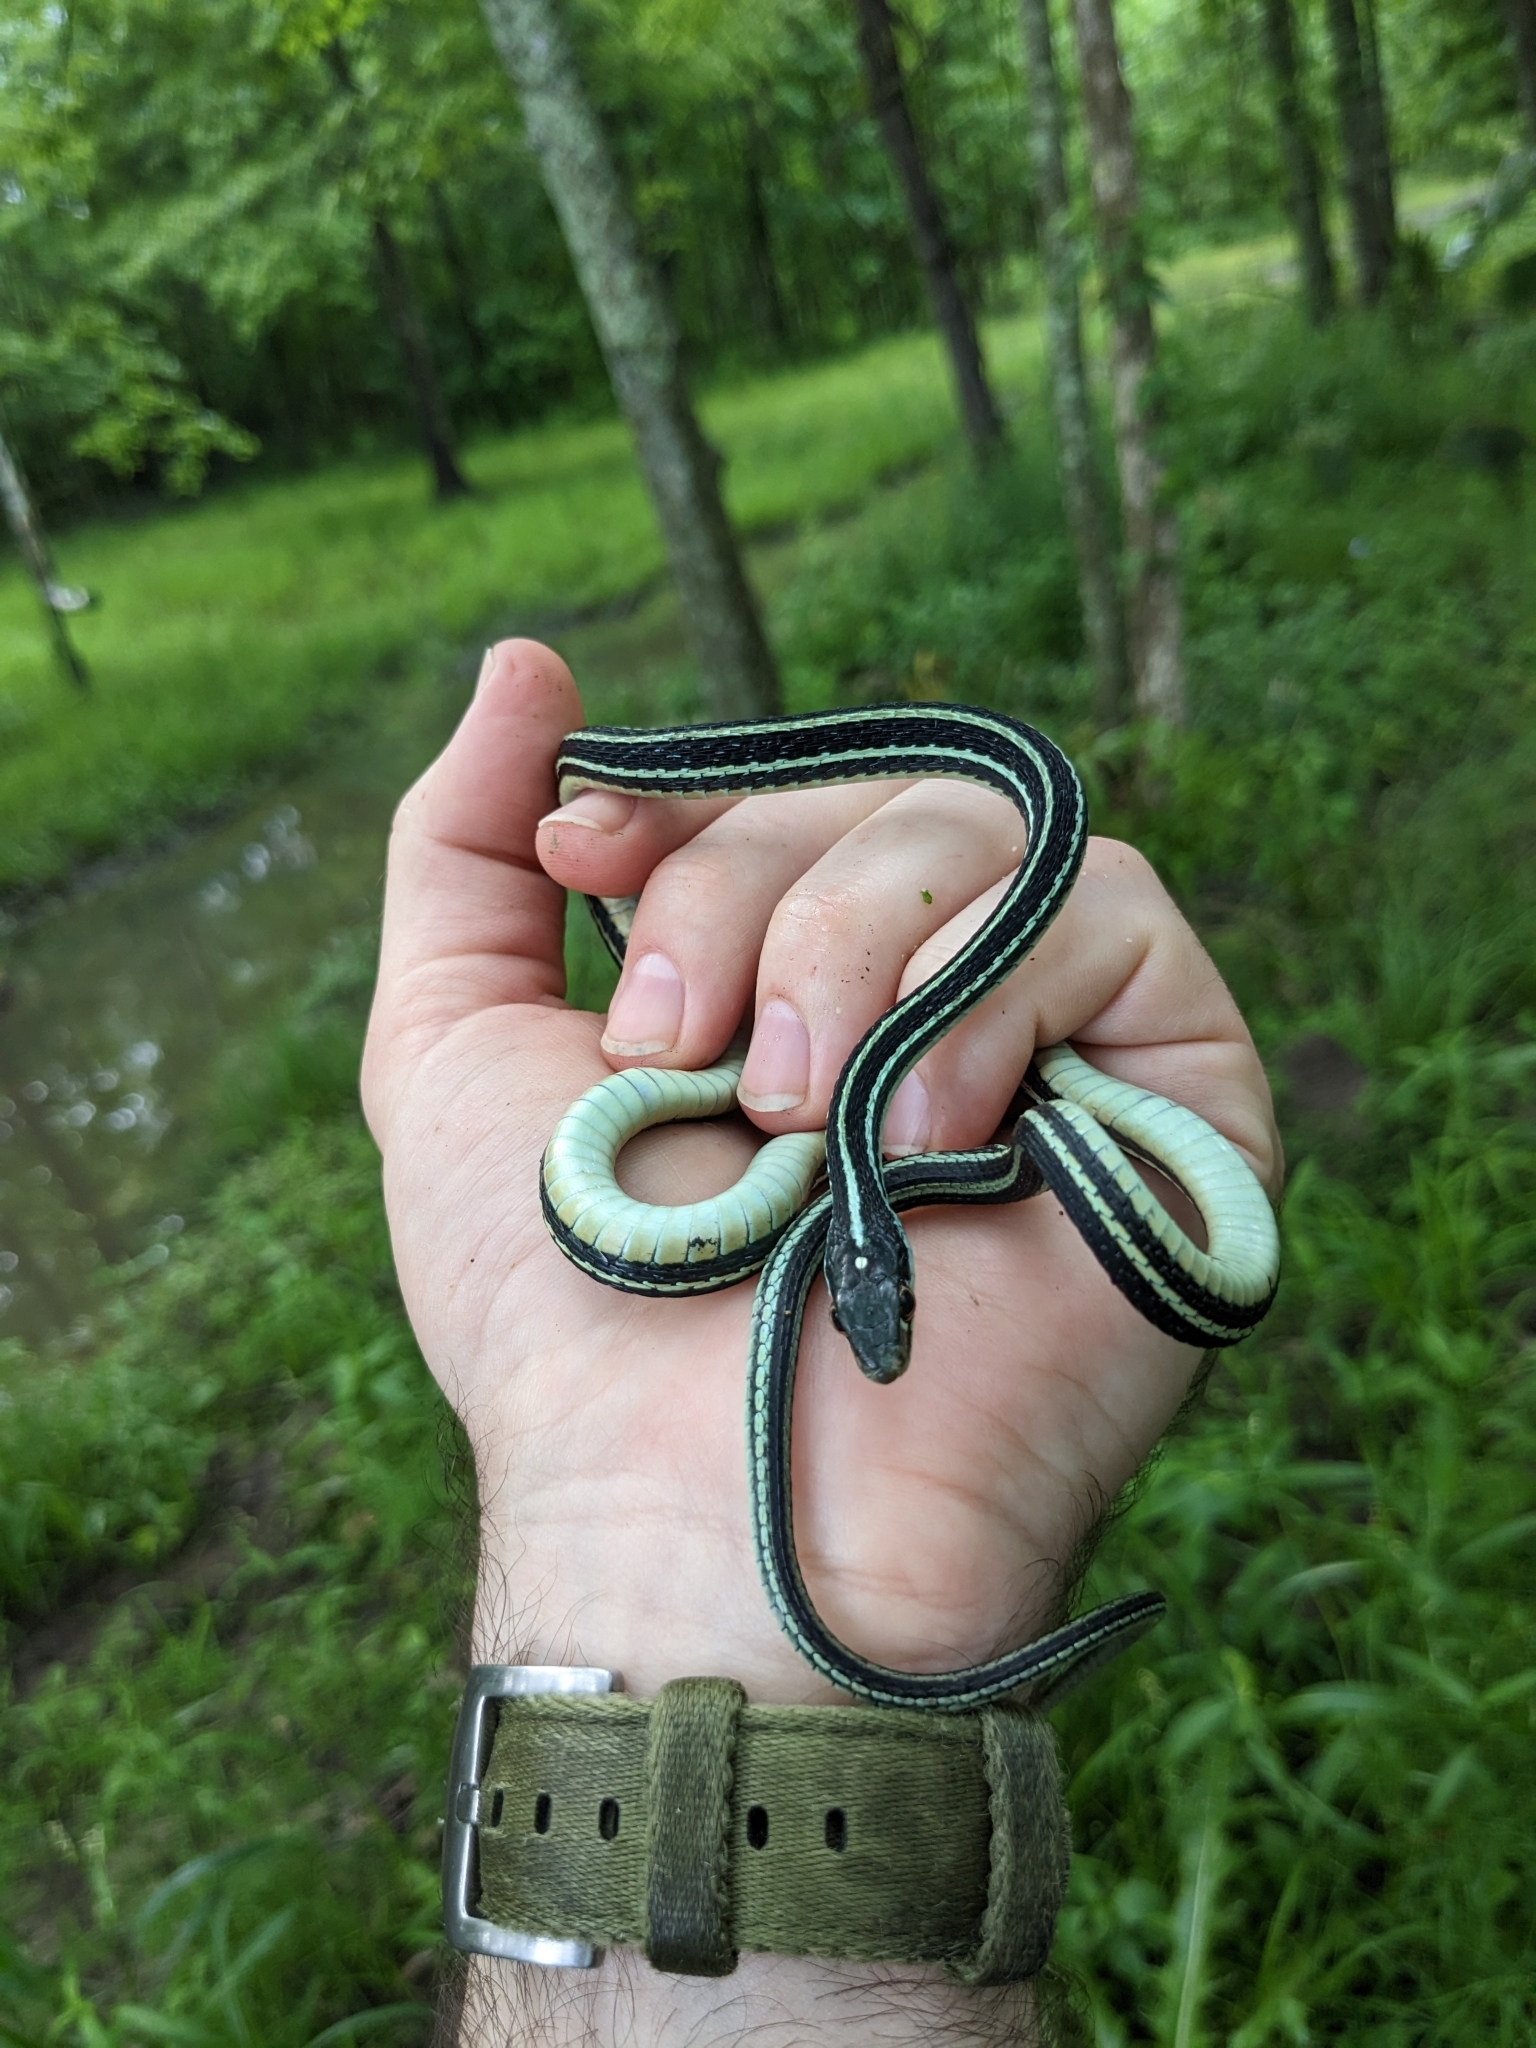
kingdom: Animalia
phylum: Chordata
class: Squamata
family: Colubridae
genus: Thamnophis
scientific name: Thamnophis proximus
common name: Western ribbon snake
